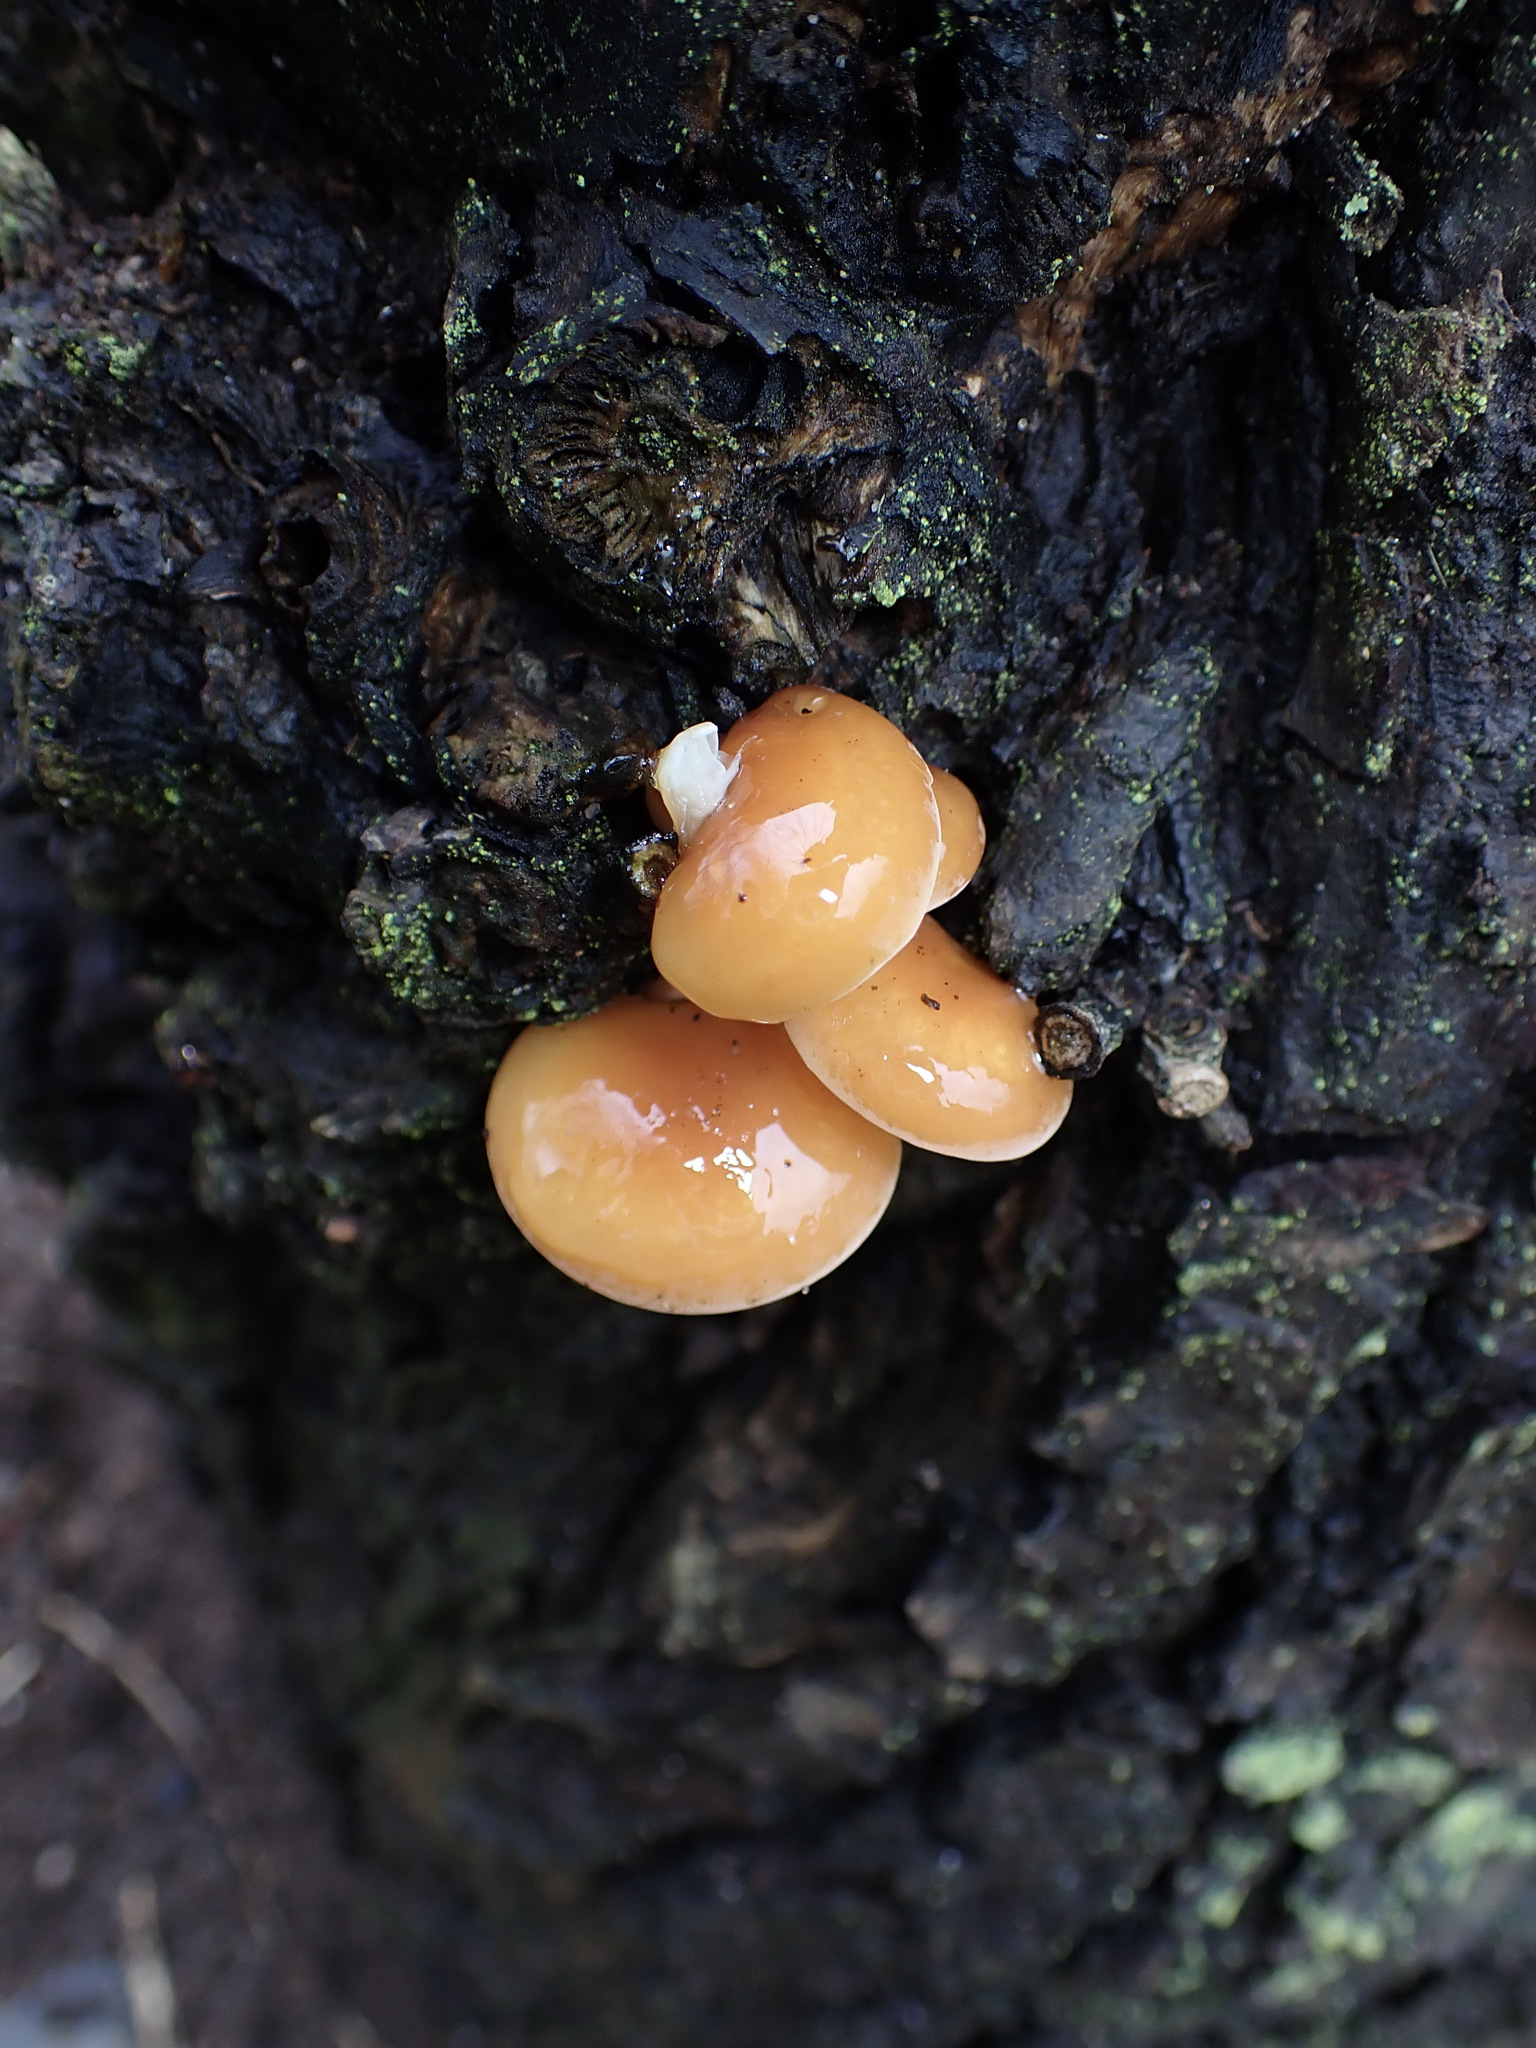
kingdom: Fungi
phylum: Basidiomycota
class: Agaricomycetes
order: Agaricales
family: Physalacriaceae
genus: Flammulina
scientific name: Flammulina
